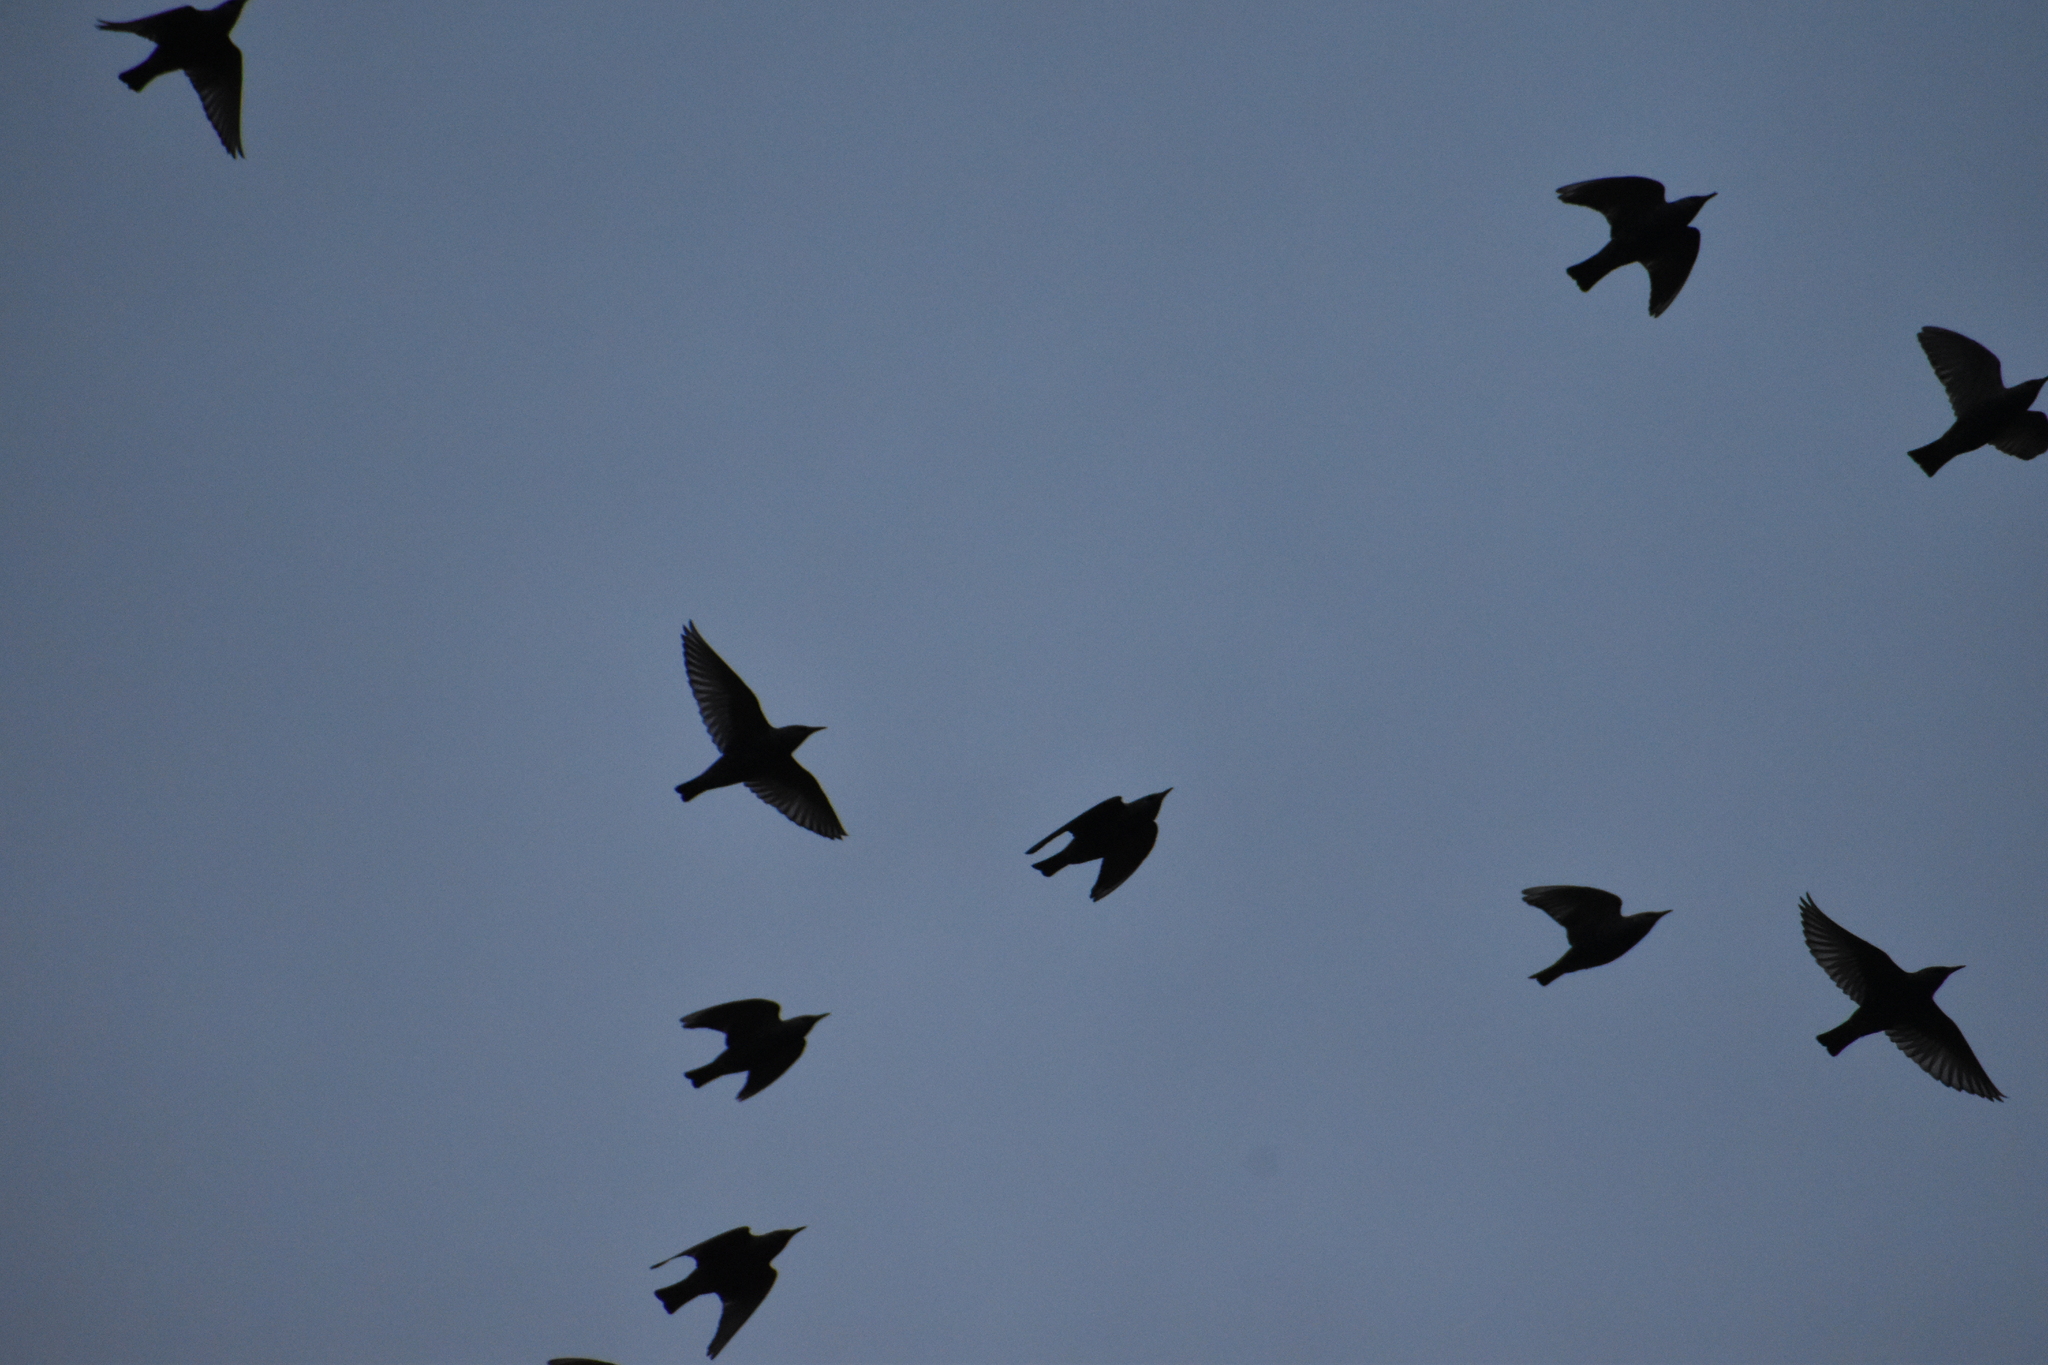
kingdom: Animalia
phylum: Chordata
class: Aves
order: Passeriformes
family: Sturnidae
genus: Sturnus
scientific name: Sturnus vulgaris
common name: Common starling
